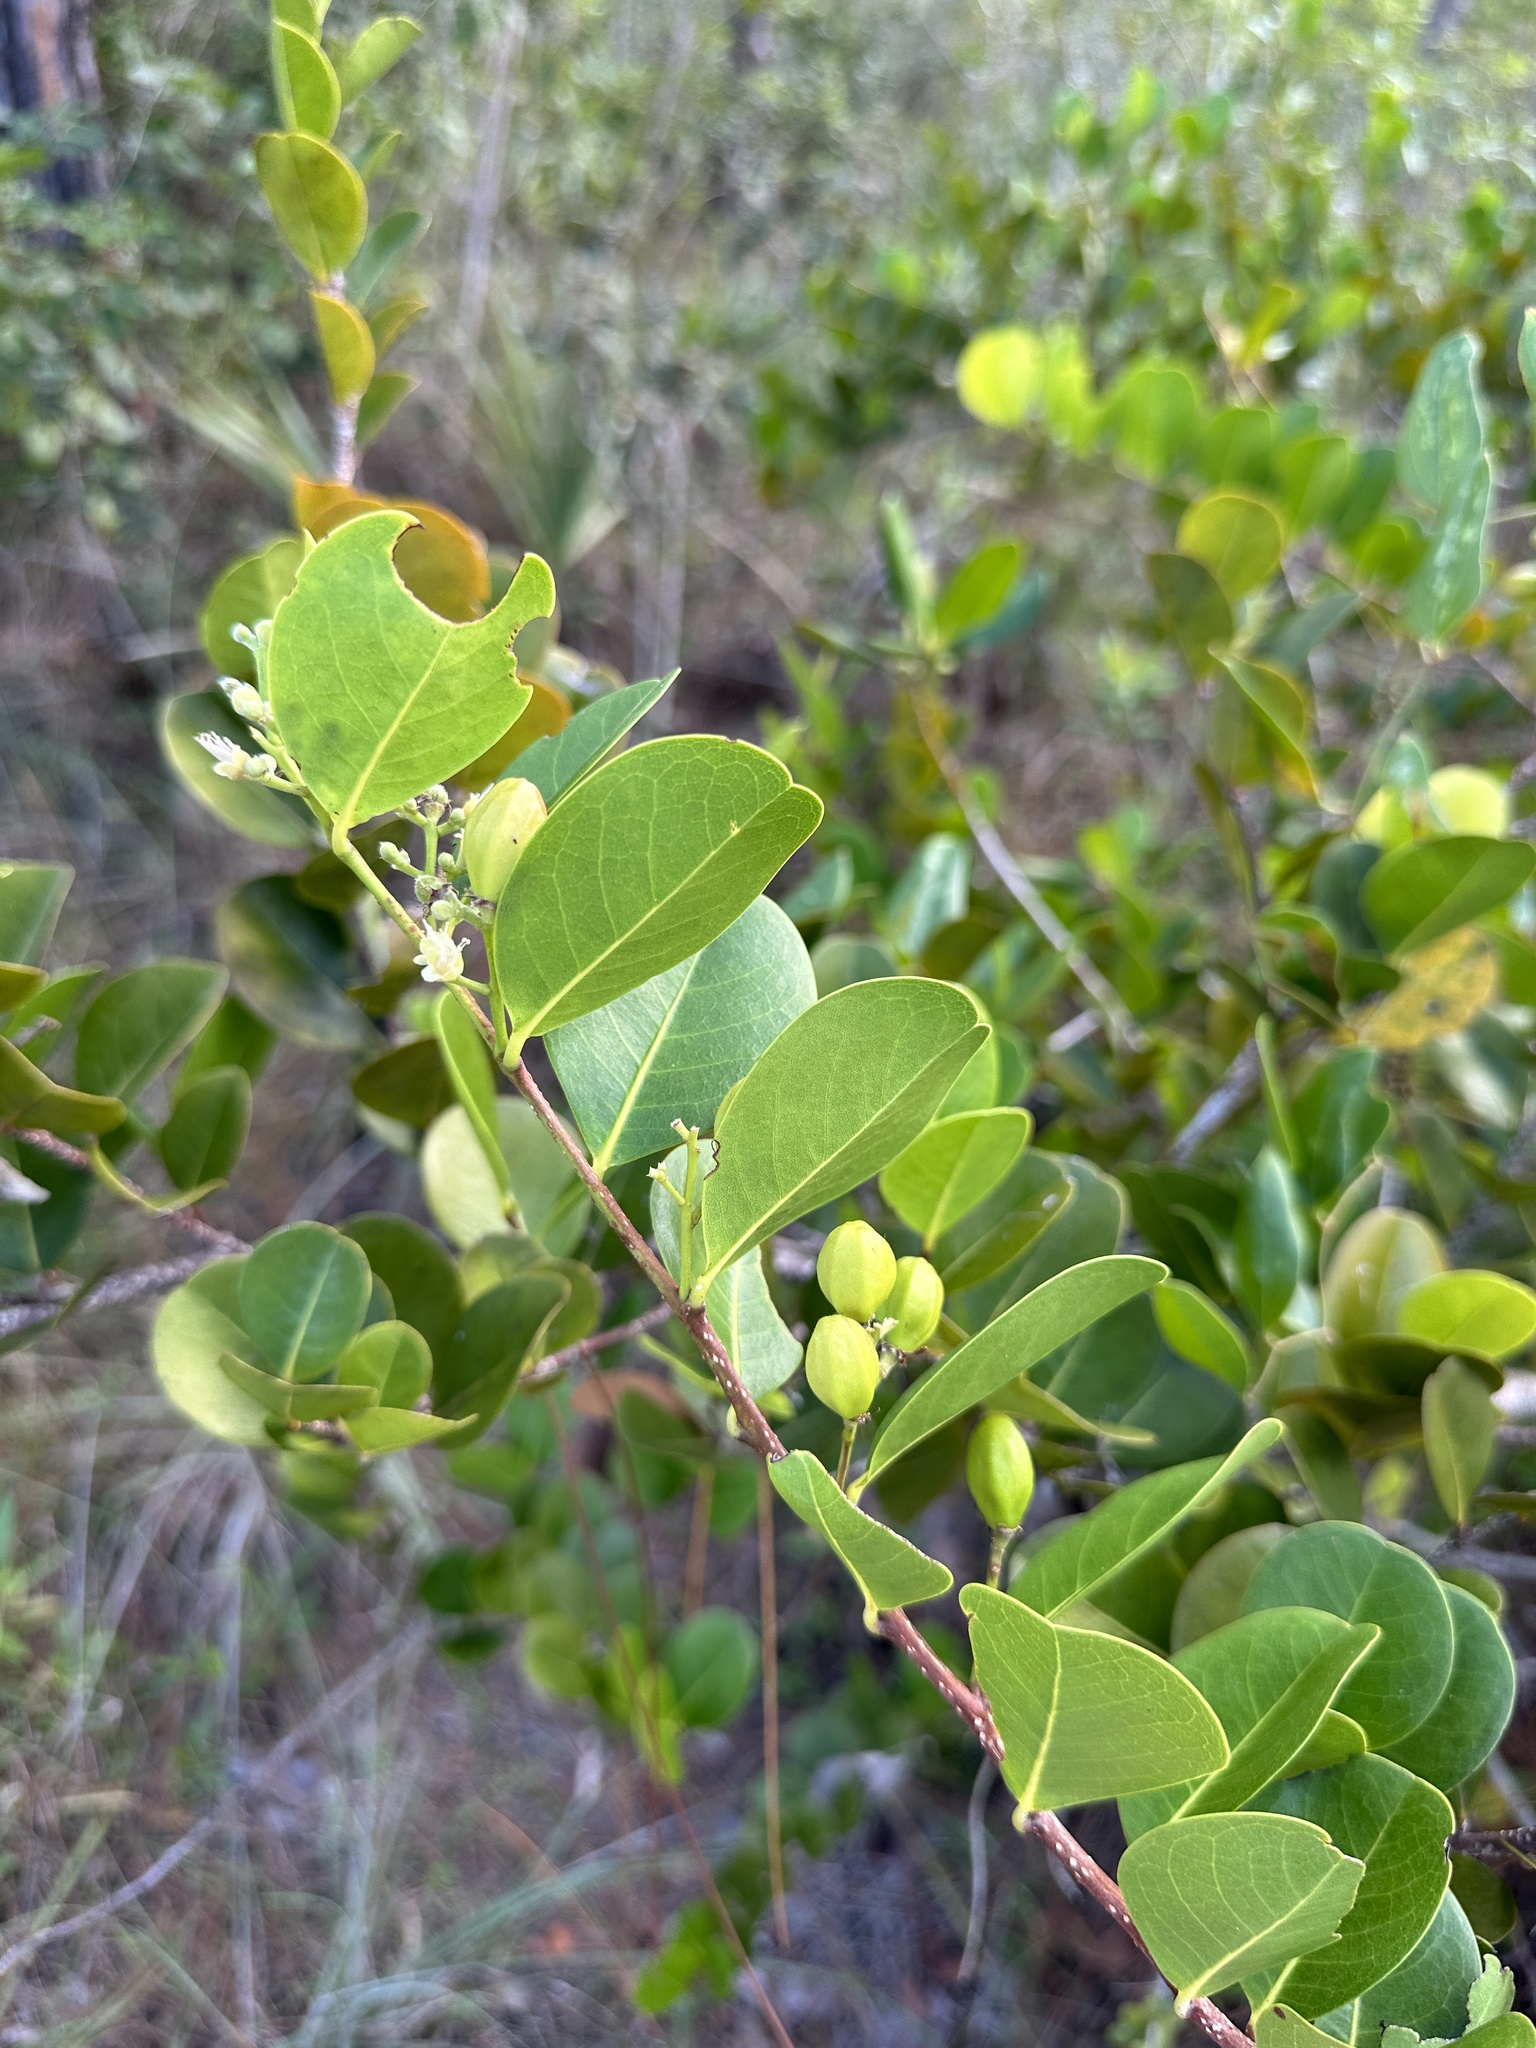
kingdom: Plantae
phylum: Tracheophyta
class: Magnoliopsida
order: Malpighiales
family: Chrysobalanaceae
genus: Chrysobalanus
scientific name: Chrysobalanus icaco
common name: Coco plum
